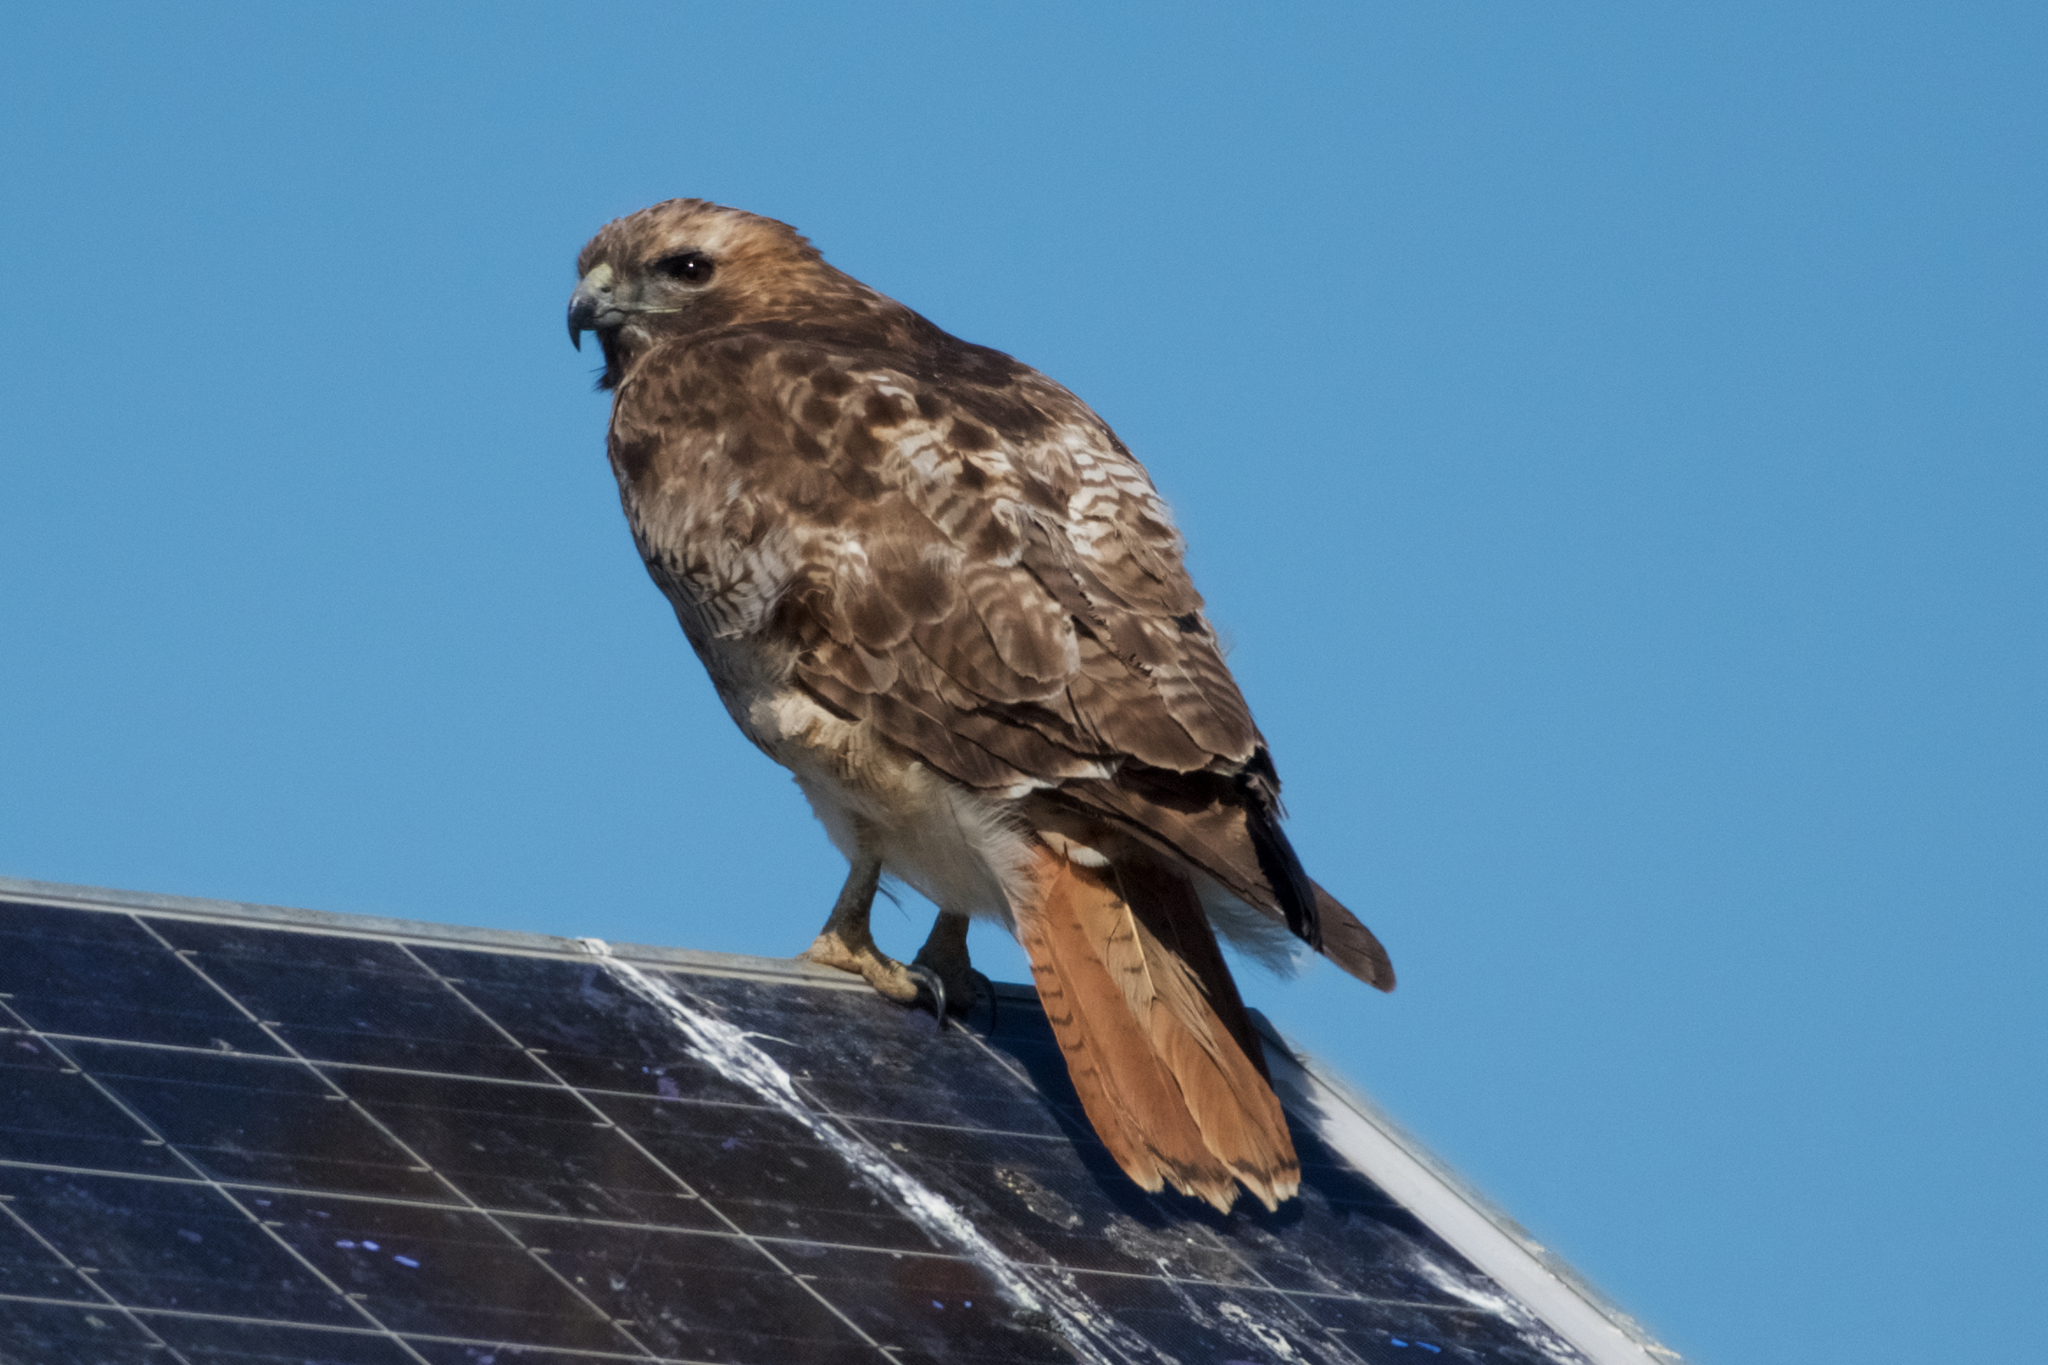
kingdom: Animalia
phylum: Chordata
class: Aves
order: Accipitriformes
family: Accipitridae
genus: Buteo
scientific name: Buteo jamaicensis
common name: Red-tailed hawk
